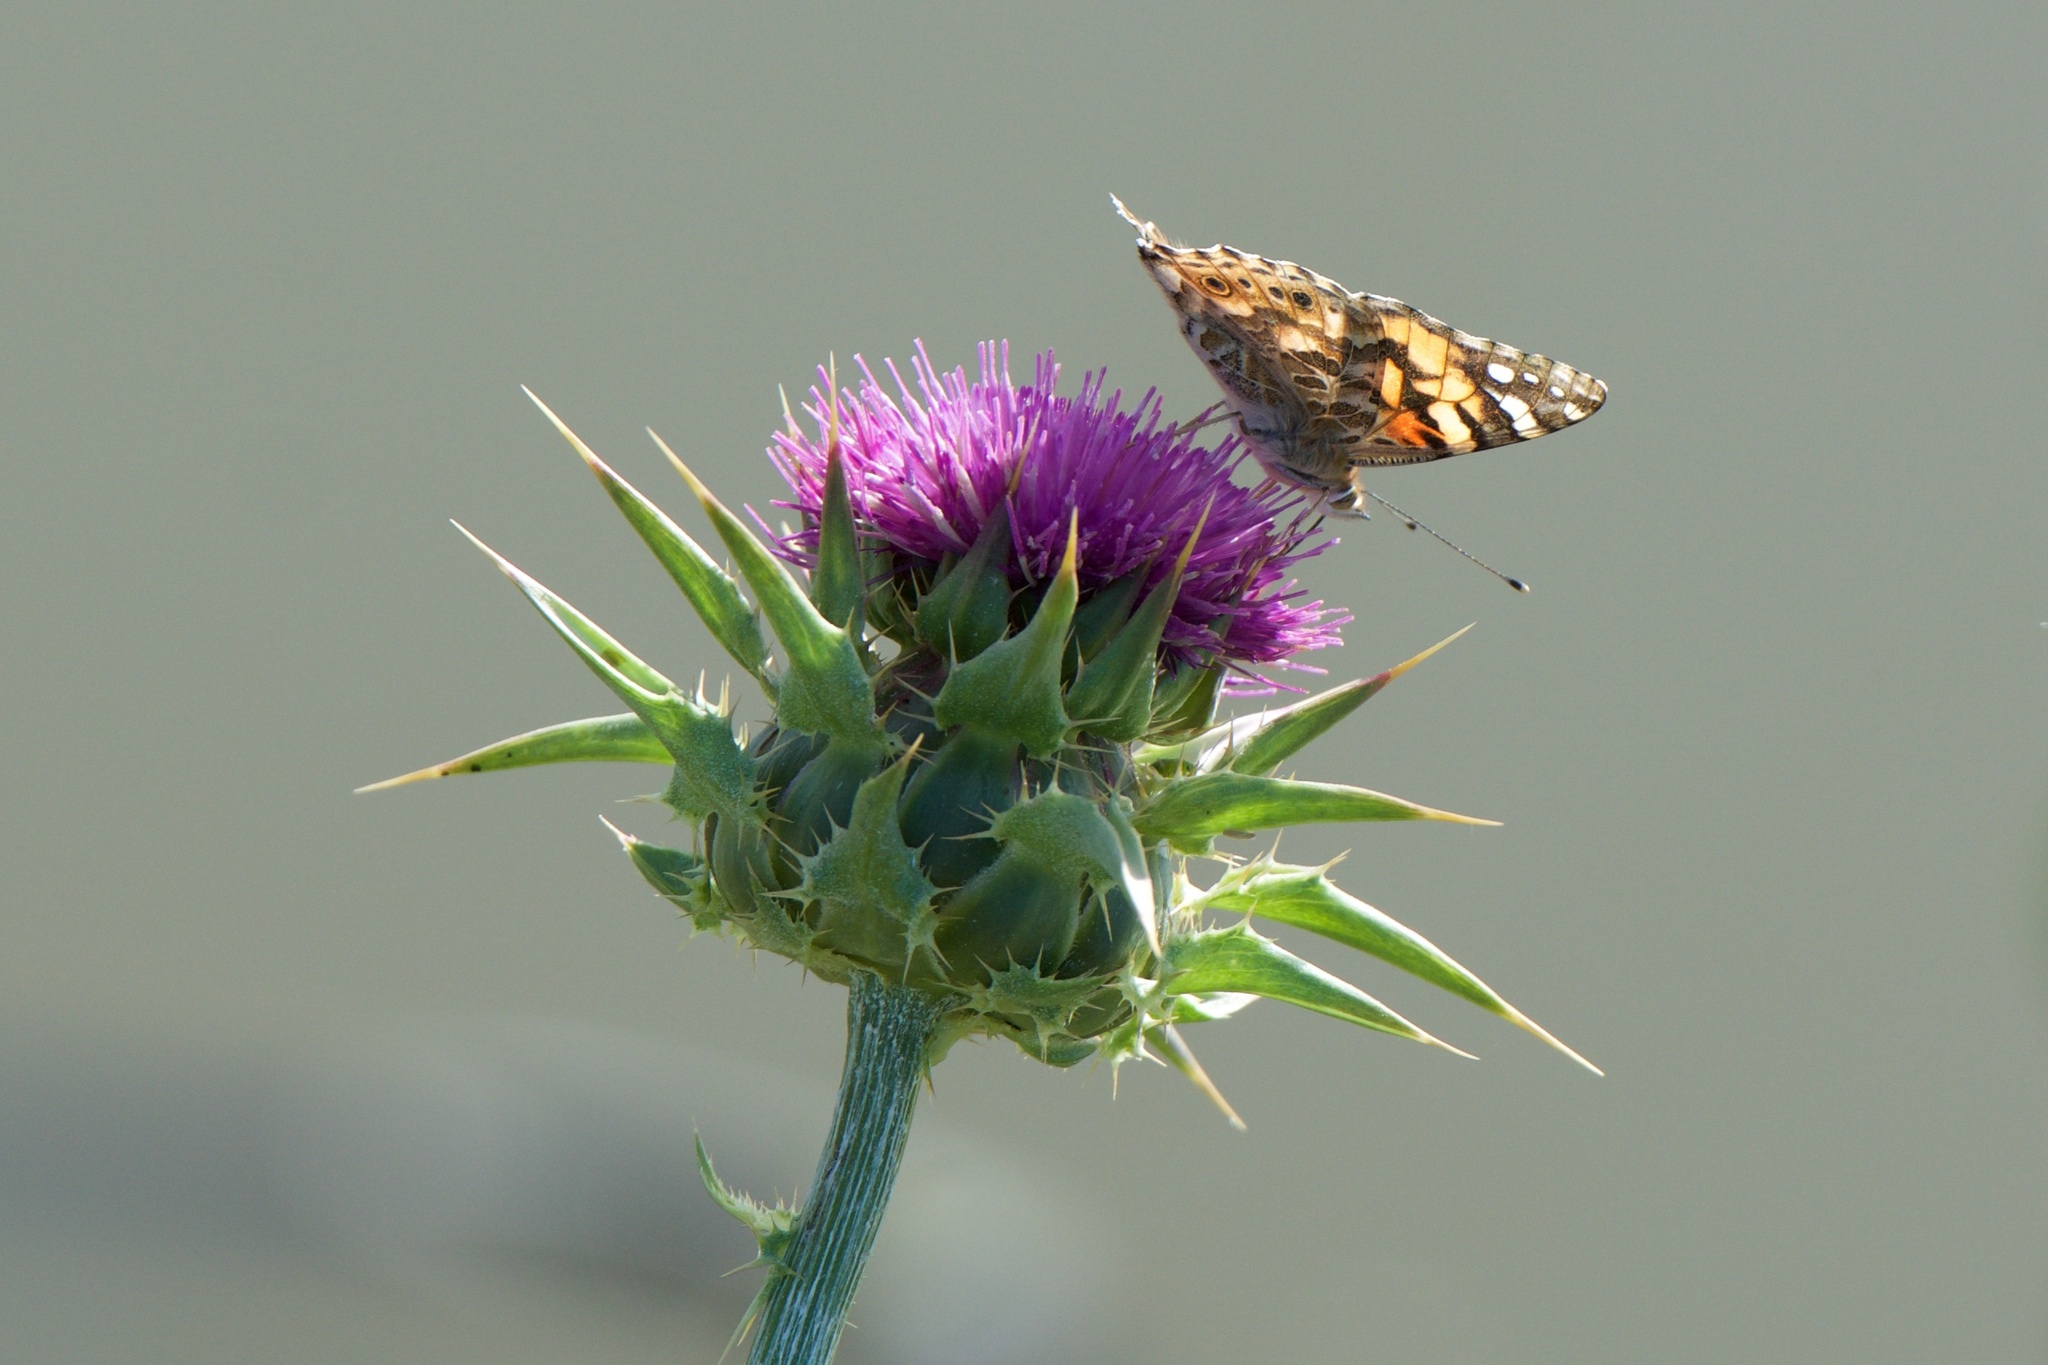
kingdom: Animalia
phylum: Arthropoda
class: Insecta
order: Lepidoptera
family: Nymphalidae
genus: Vanessa
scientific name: Vanessa cardui
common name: Painted lady
